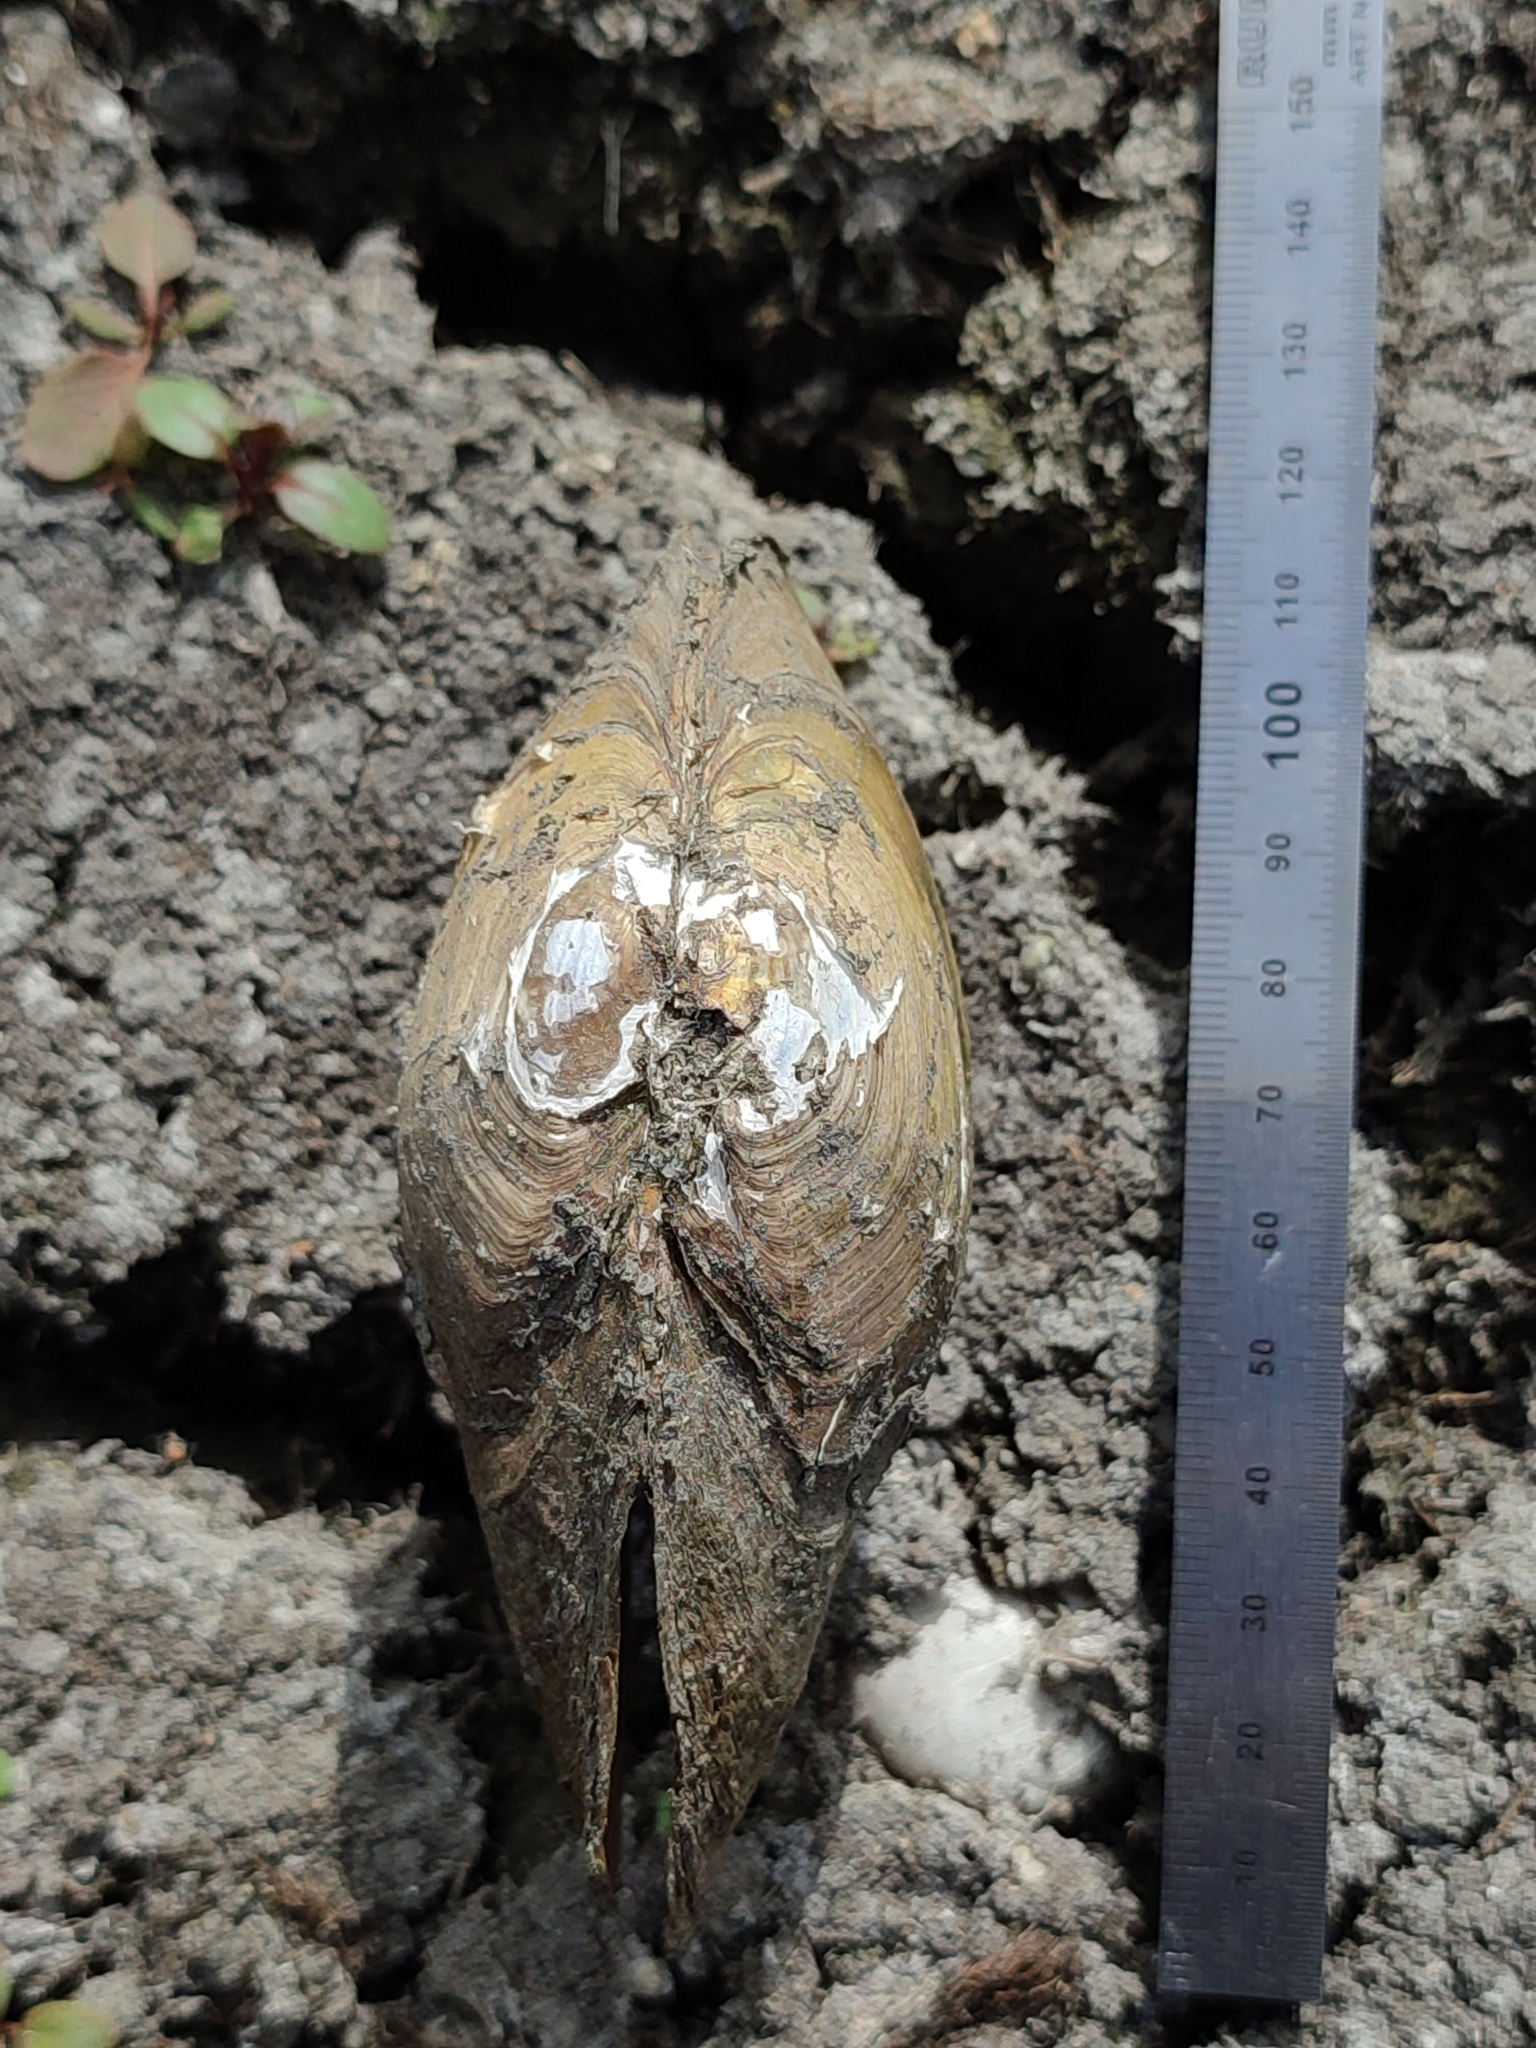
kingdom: Animalia
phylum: Mollusca
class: Bivalvia
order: Unionida
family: Unionidae
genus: Anodonta
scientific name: Anodonta anatina
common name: Duck mussel
